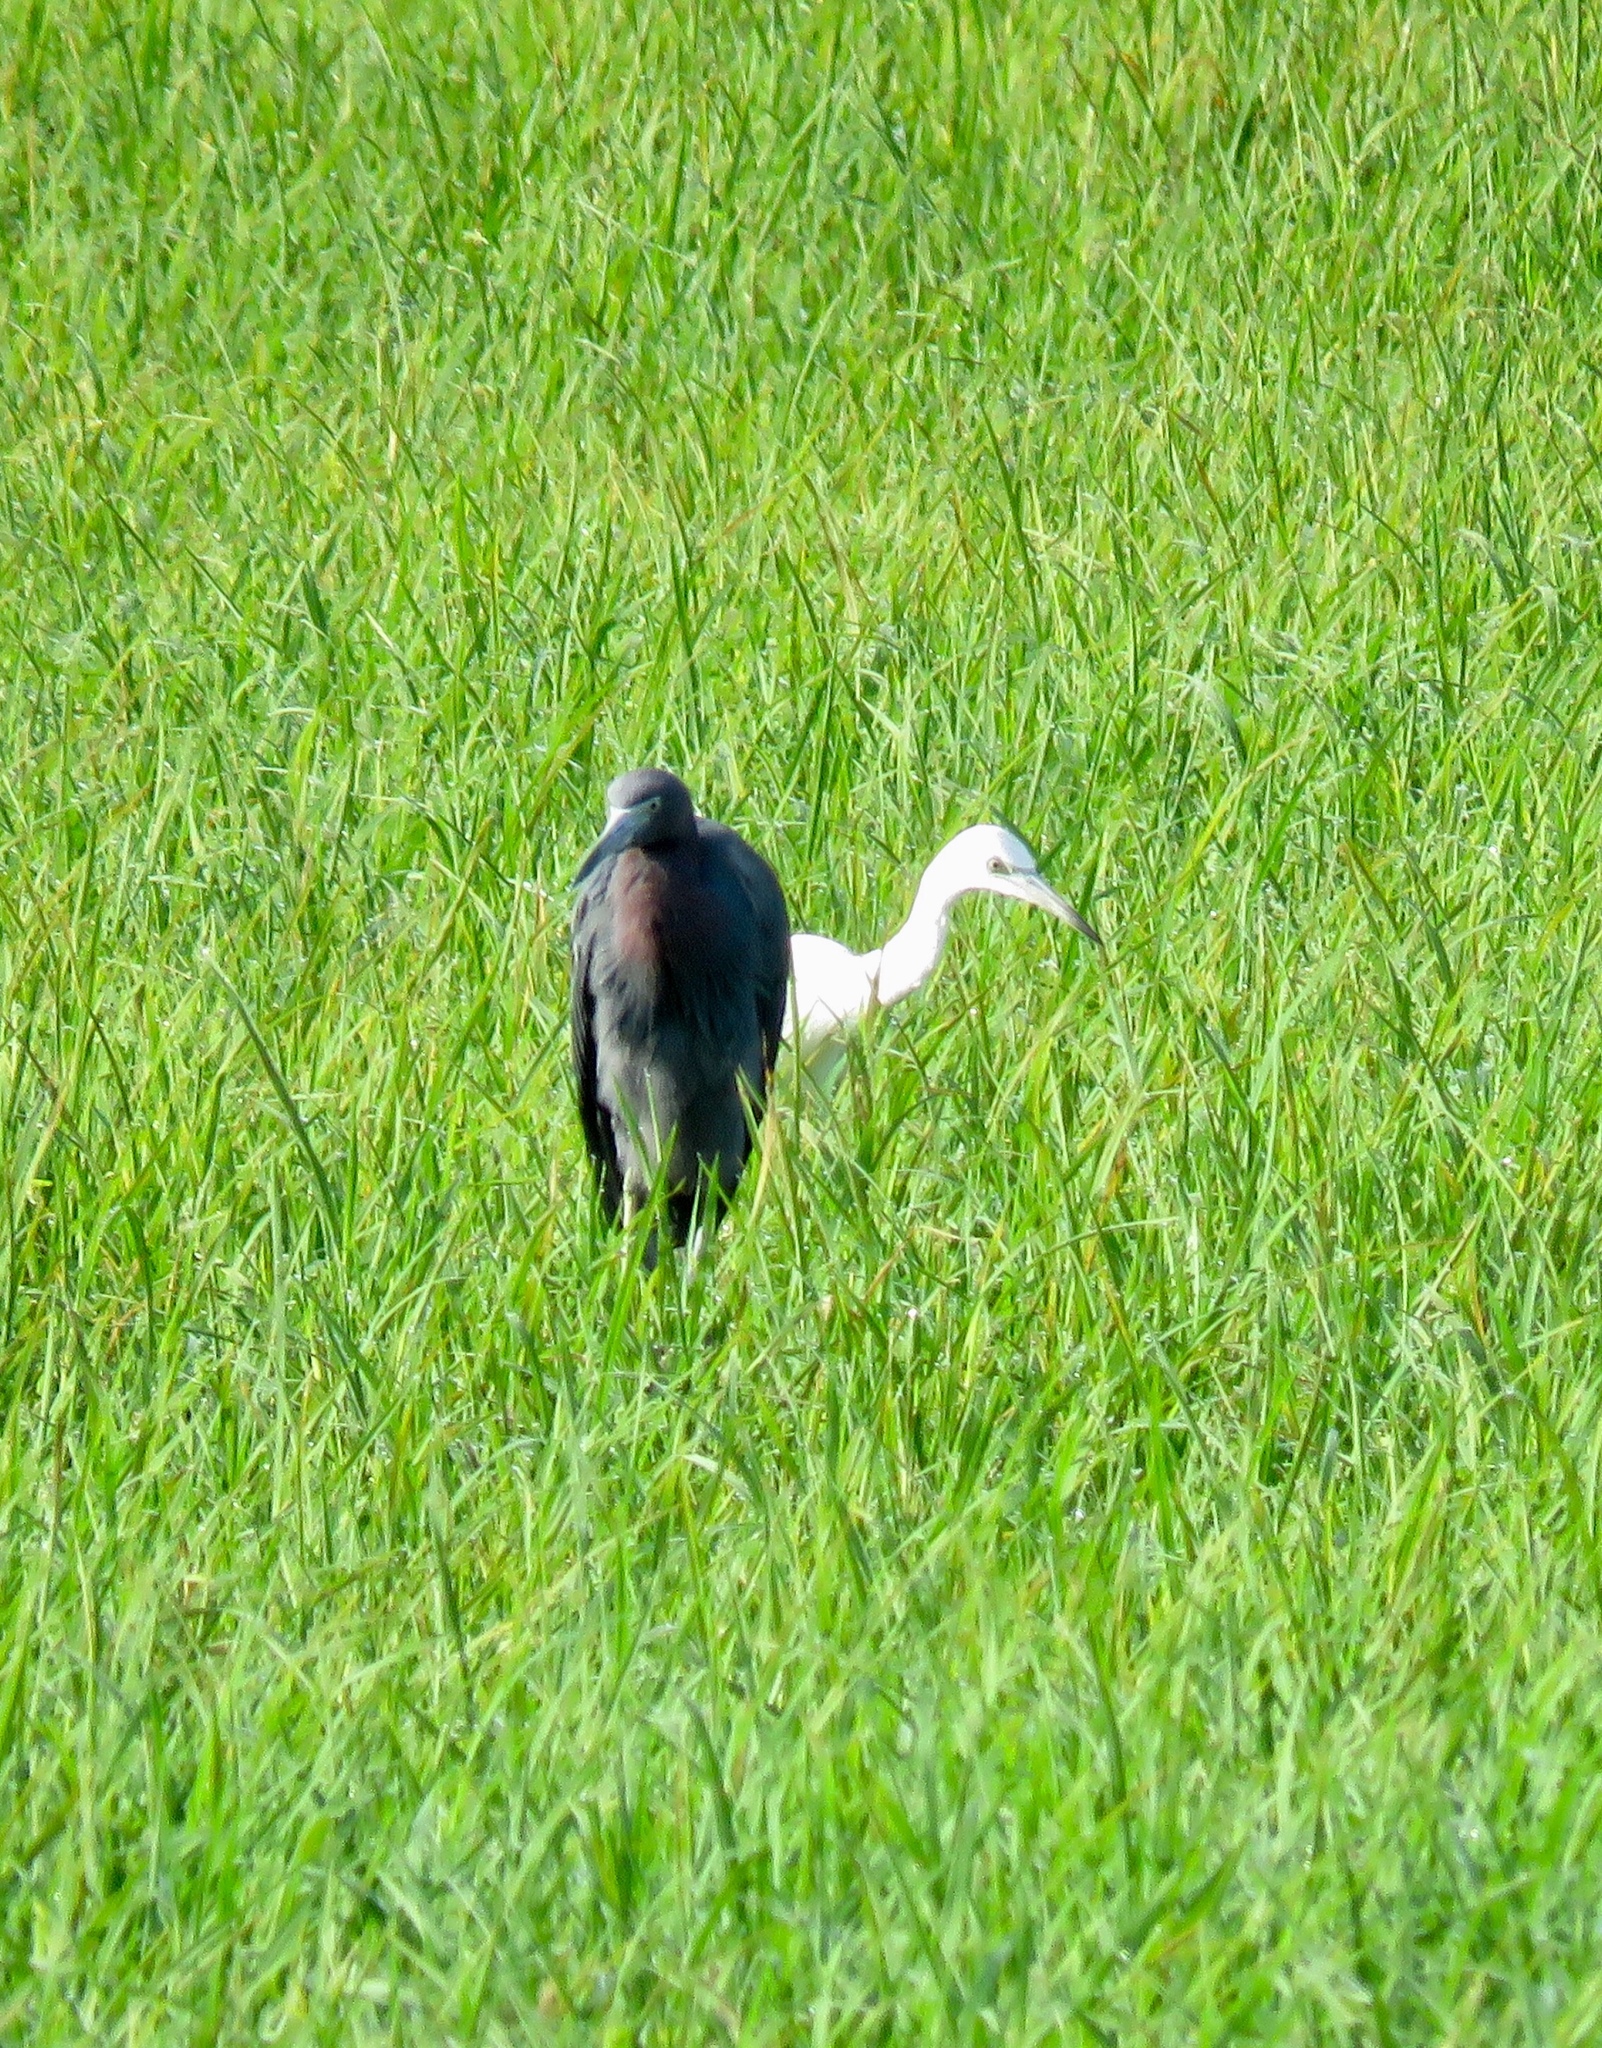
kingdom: Animalia
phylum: Chordata
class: Aves
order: Pelecaniformes
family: Ardeidae
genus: Egretta
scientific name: Egretta caerulea
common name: Little blue heron
